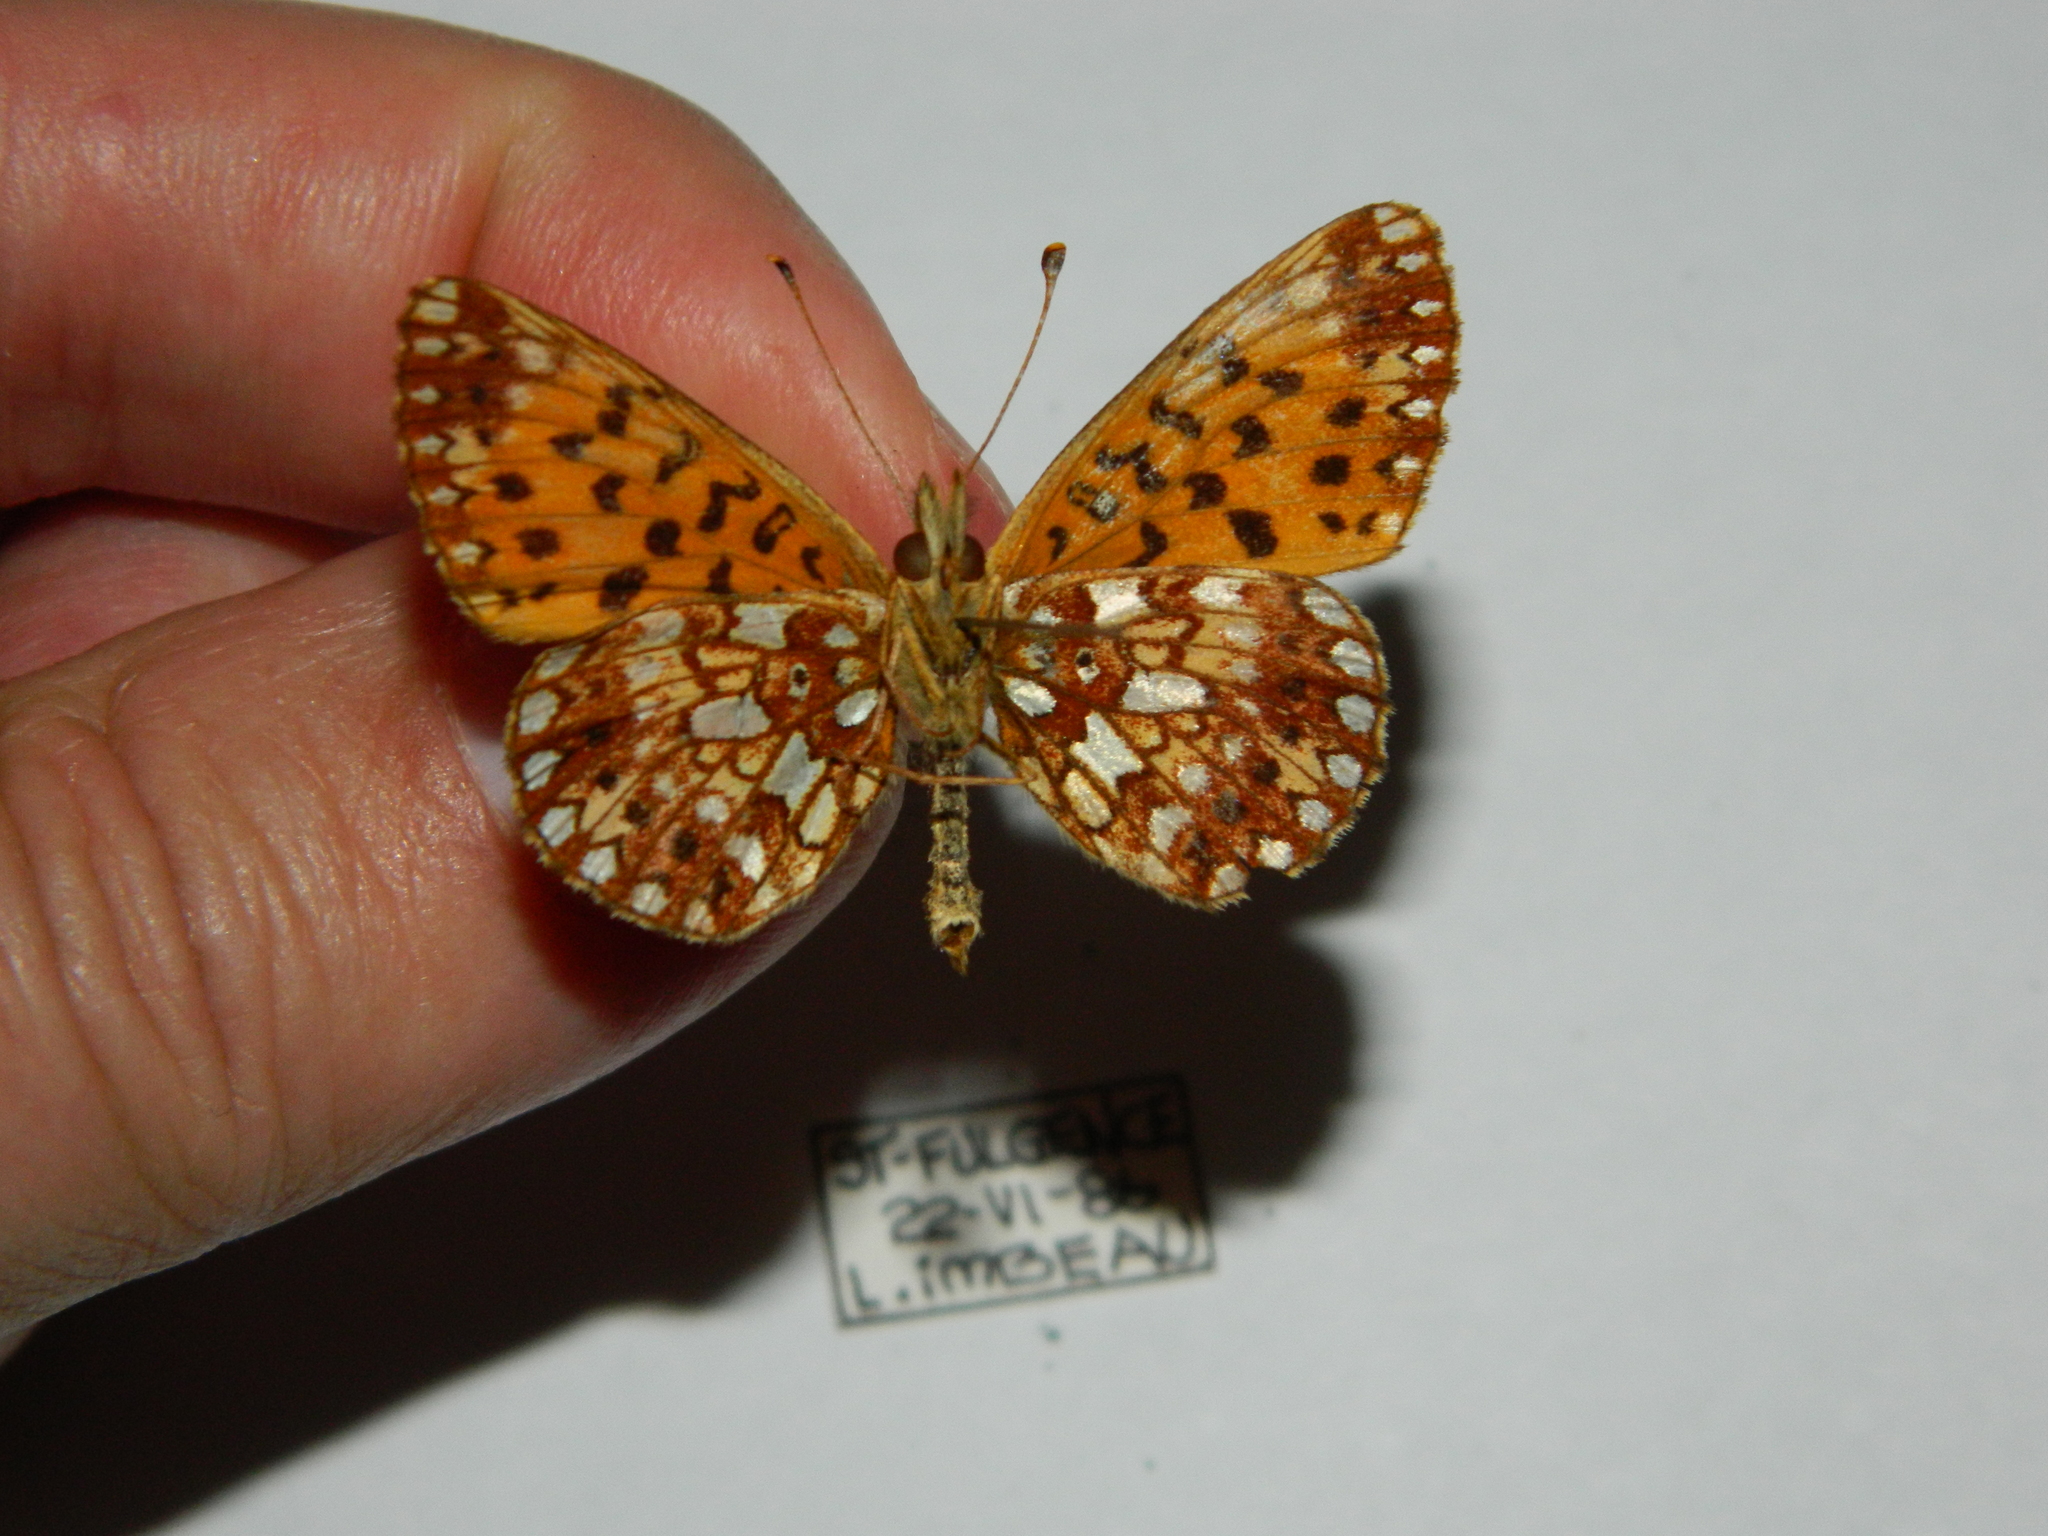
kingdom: Animalia
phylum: Arthropoda
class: Insecta
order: Lepidoptera
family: Nymphalidae
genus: Boloria
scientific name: Boloria
